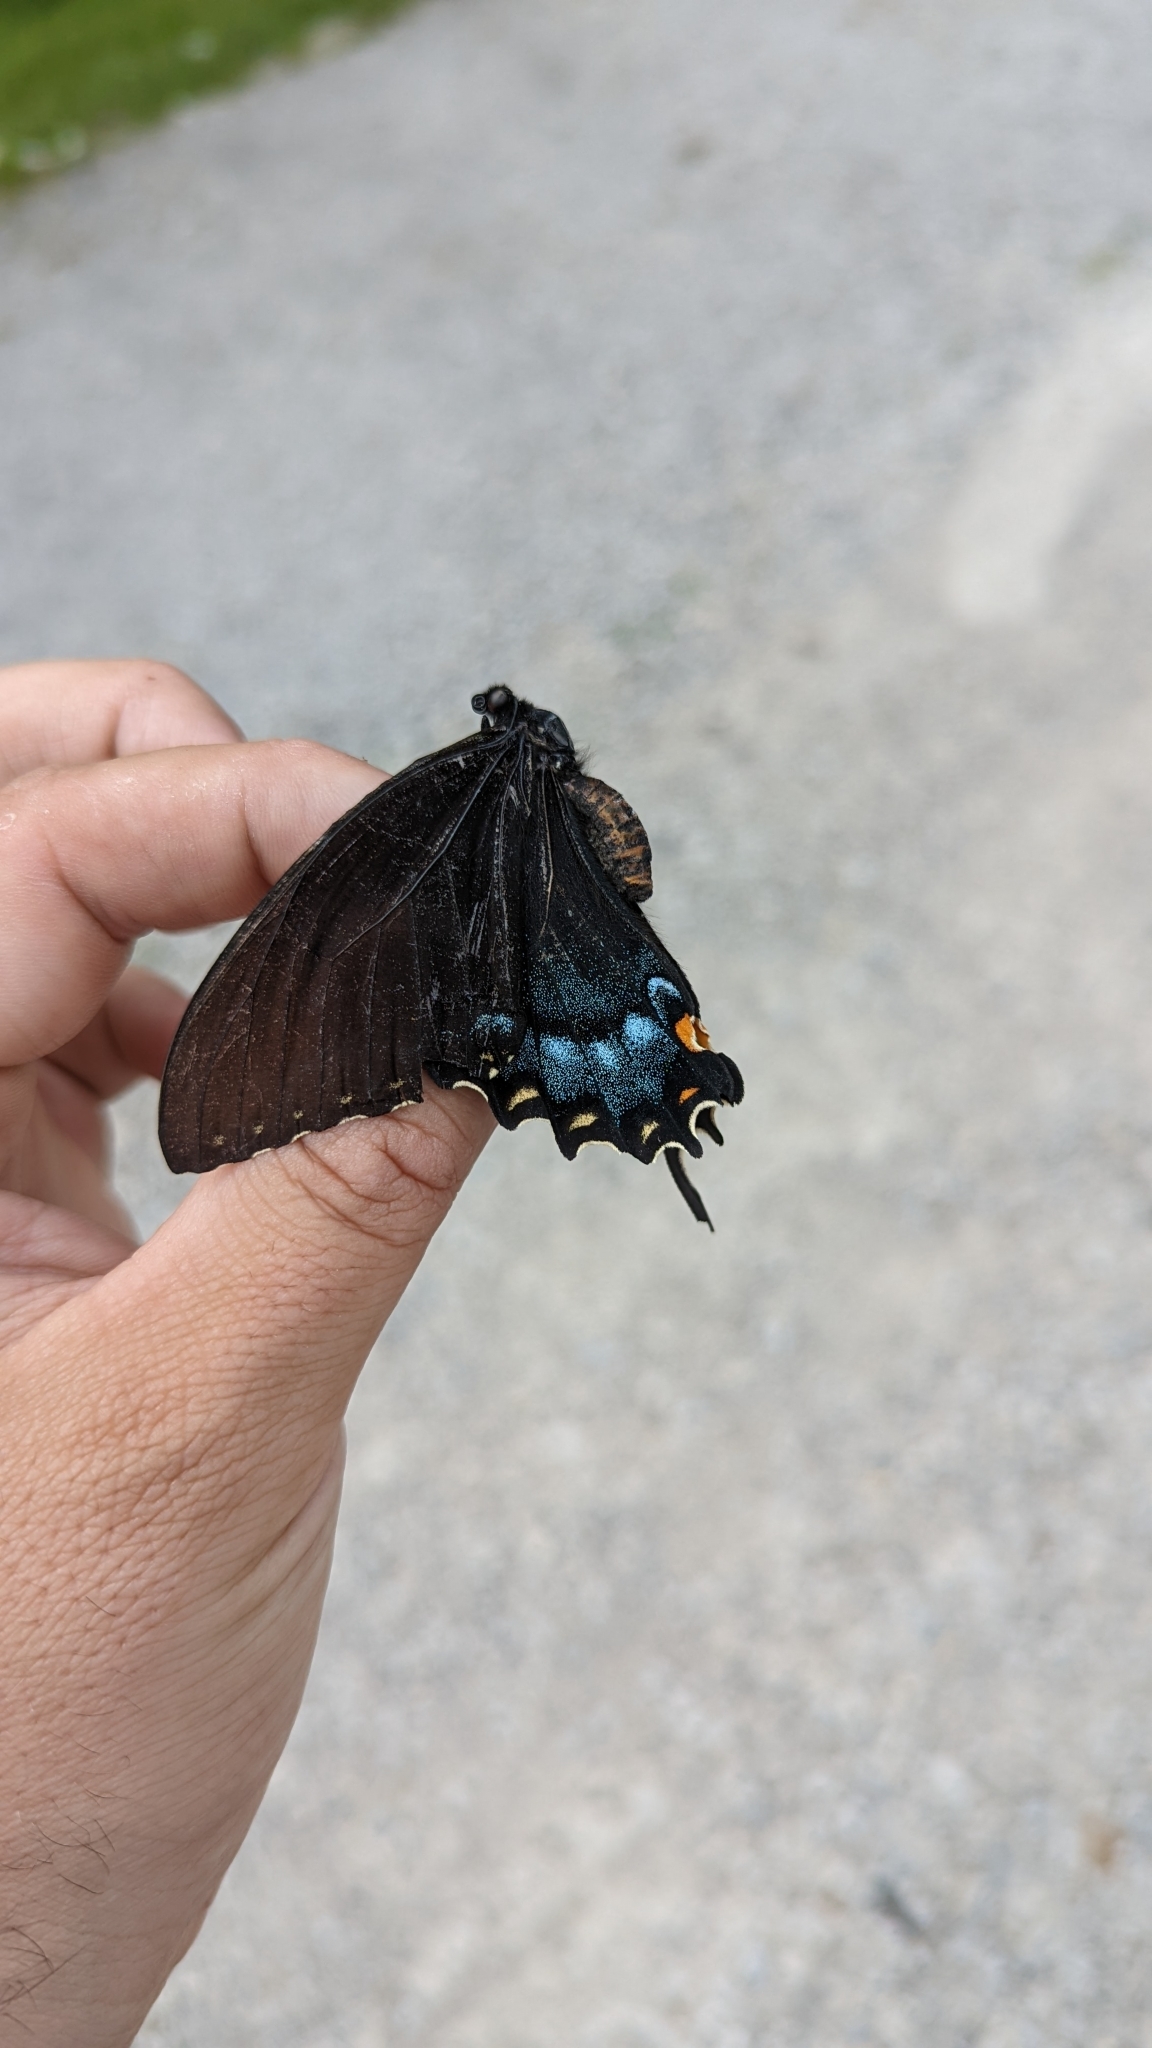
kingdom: Animalia
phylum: Arthropoda
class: Insecta
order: Lepidoptera
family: Papilionidae
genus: Papilio
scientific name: Papilio glaucus
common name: Tiger swallowtail
